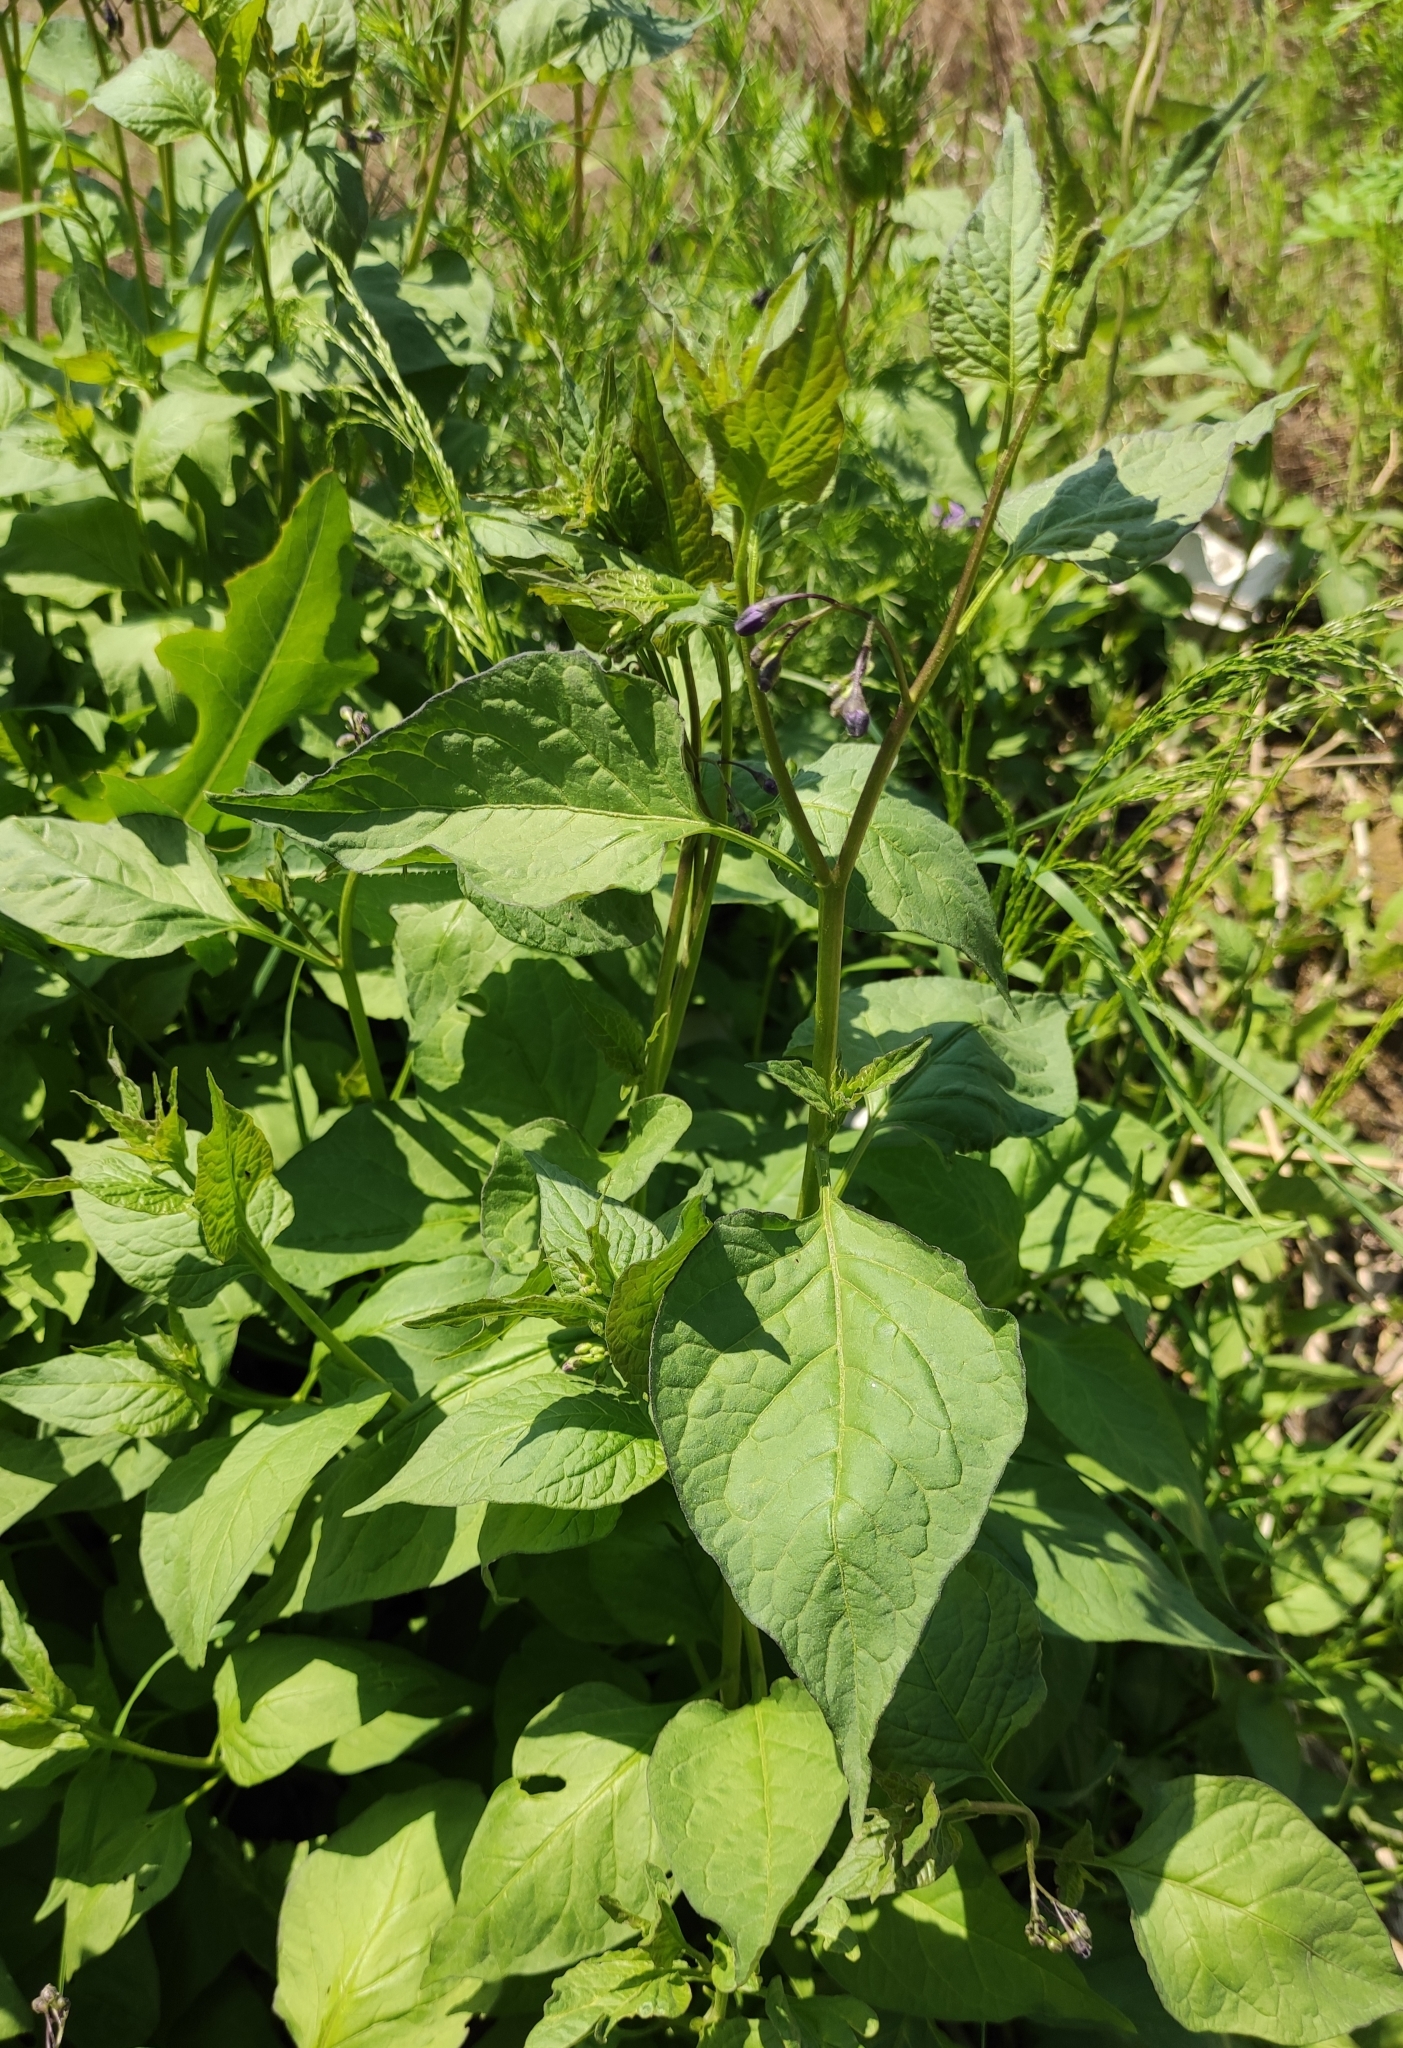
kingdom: Plantae
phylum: Tracheophyta
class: Magnoliopsida
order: Solanales
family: Solanaceae
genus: Solanum
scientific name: Solanum dulcamara
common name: Climbing nightshade
